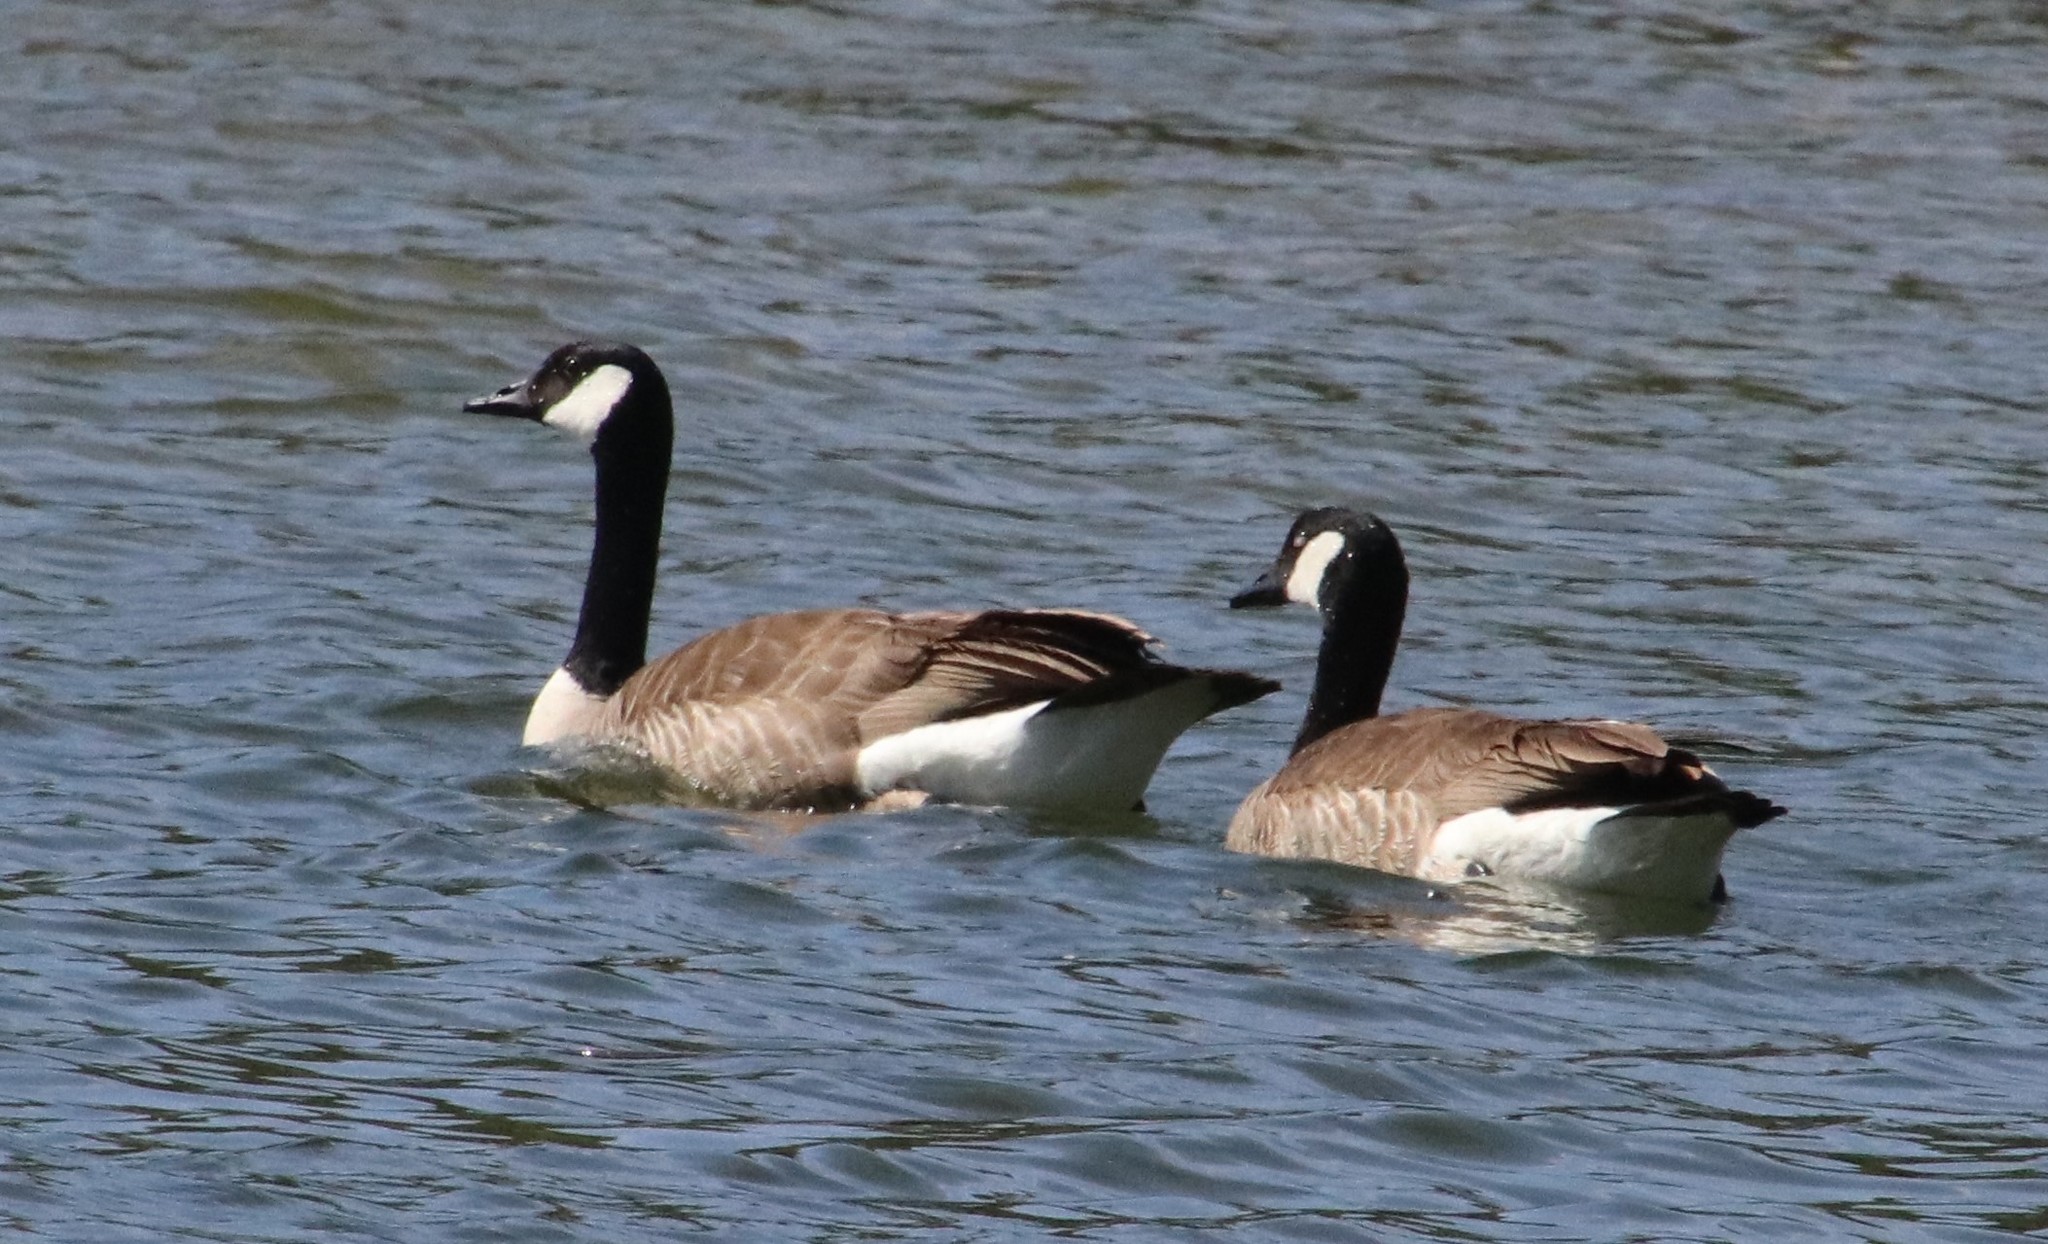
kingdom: Animalia
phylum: Chordata
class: Aves
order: Anseriformes
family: Anatidae
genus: Branta
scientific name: Branta canadensis
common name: Canada goose
